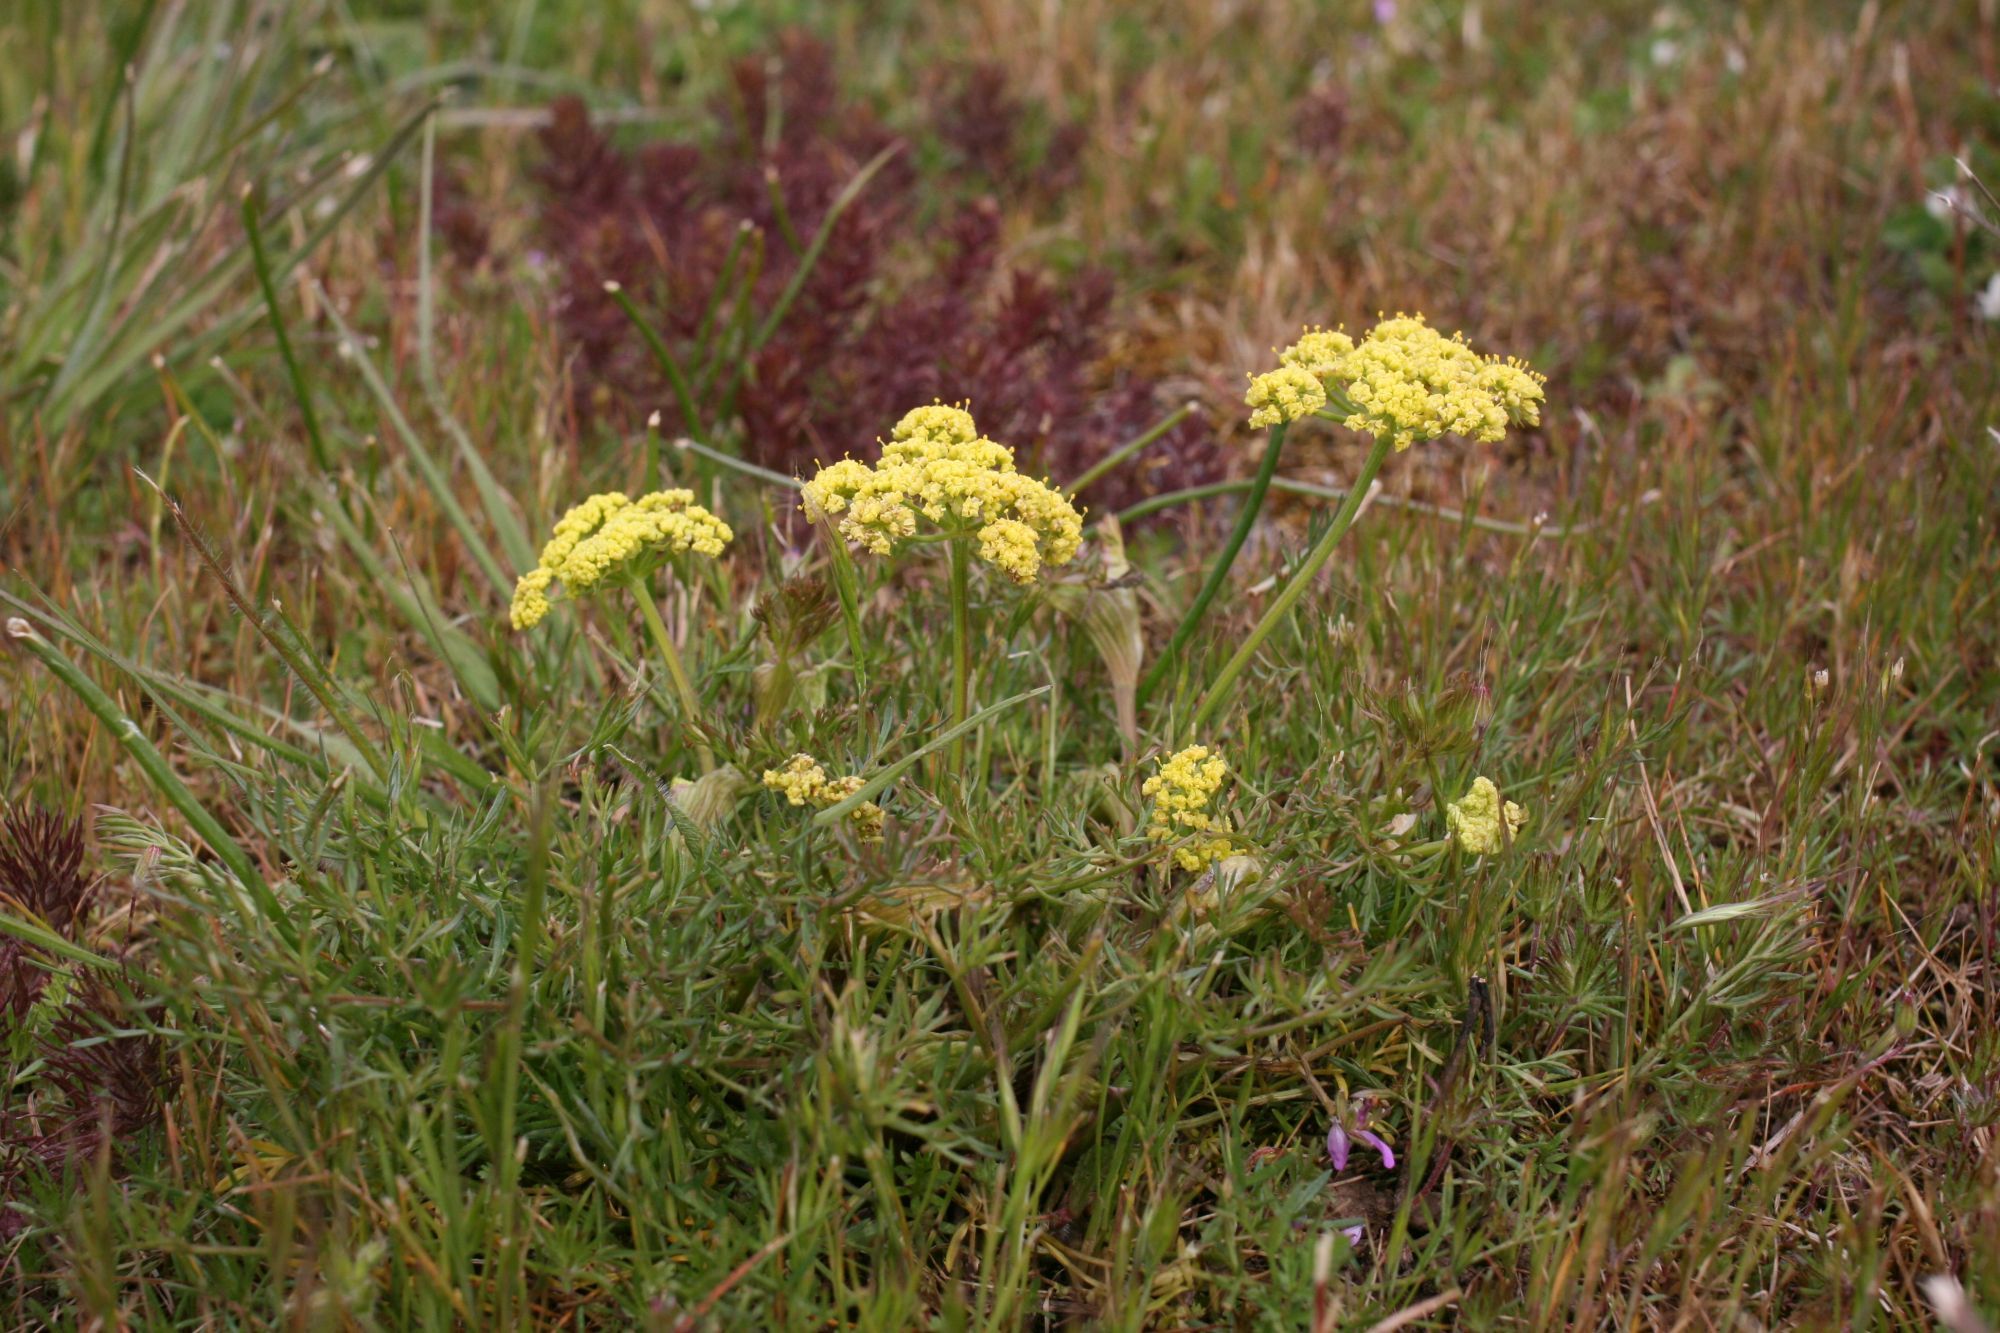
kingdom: Plantae
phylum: Tracheophyta
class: Magnoliopsida
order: Apiales
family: Apiaceae
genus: Lomatium
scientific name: Lomatium utriculatum
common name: Fine-leaf desert-parsley
